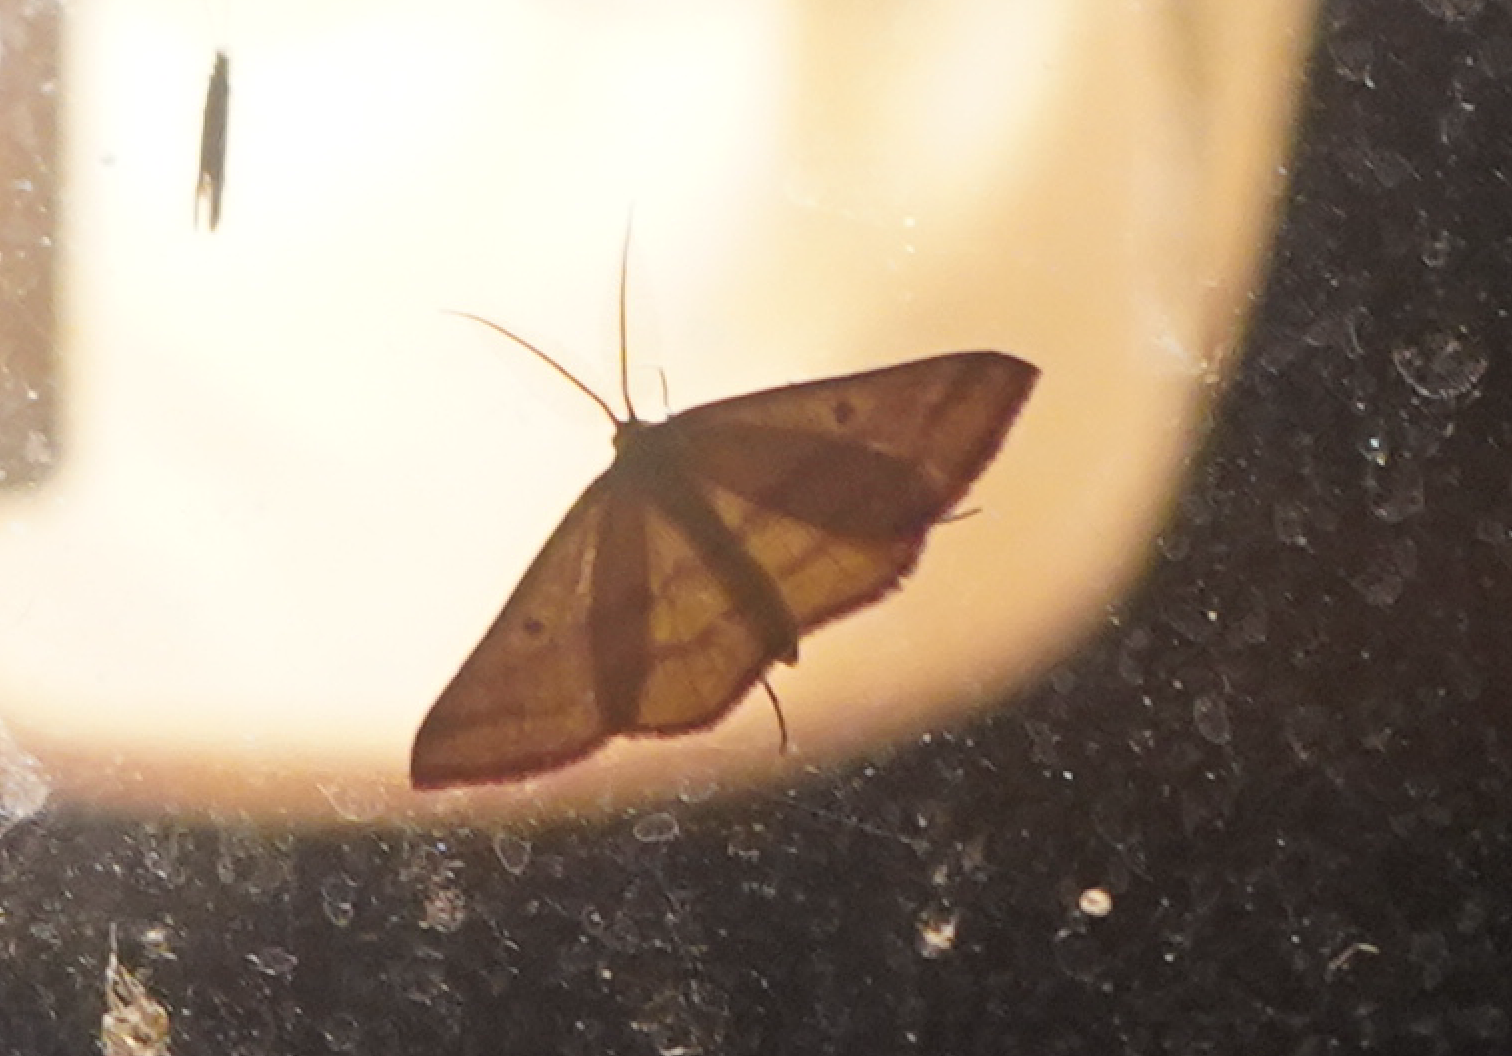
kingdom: Animalia
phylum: Arthropoda
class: Insecta
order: Lepidoptera
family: Geometridae
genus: Haematopis
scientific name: Haematopis grataria
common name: Chickweed geometer
